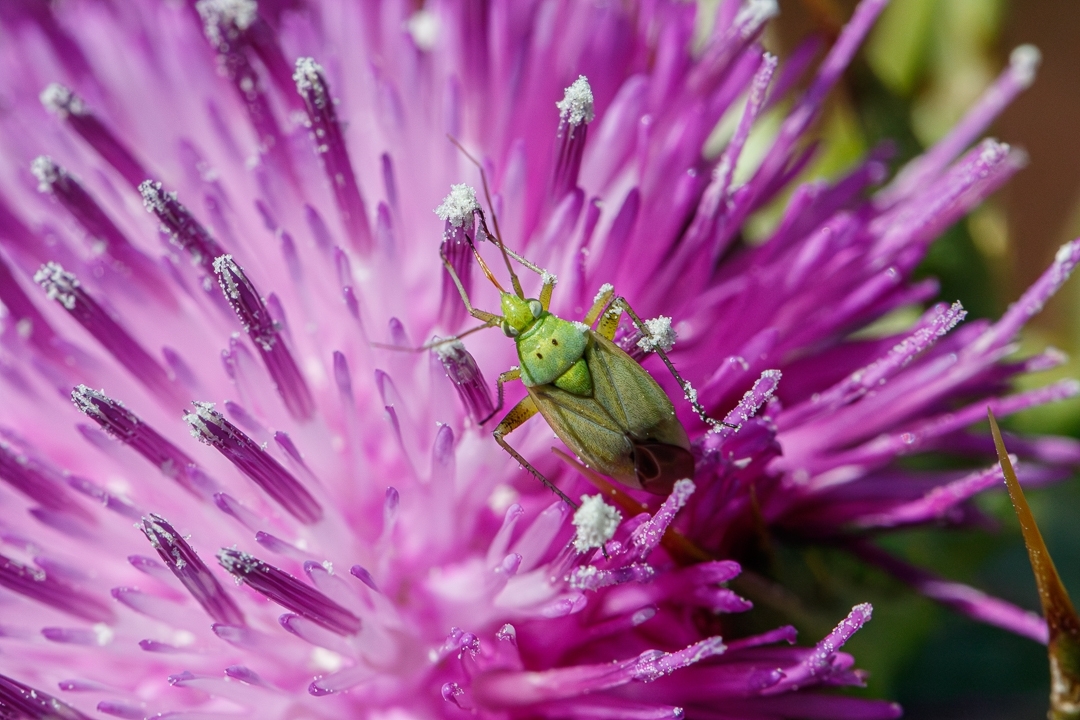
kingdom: Animalia
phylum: Arthropoda
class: Insecta
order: Hemiptera
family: Miridae
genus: Closterotomus
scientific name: Closterotomus norvegicus
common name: Plant bug
